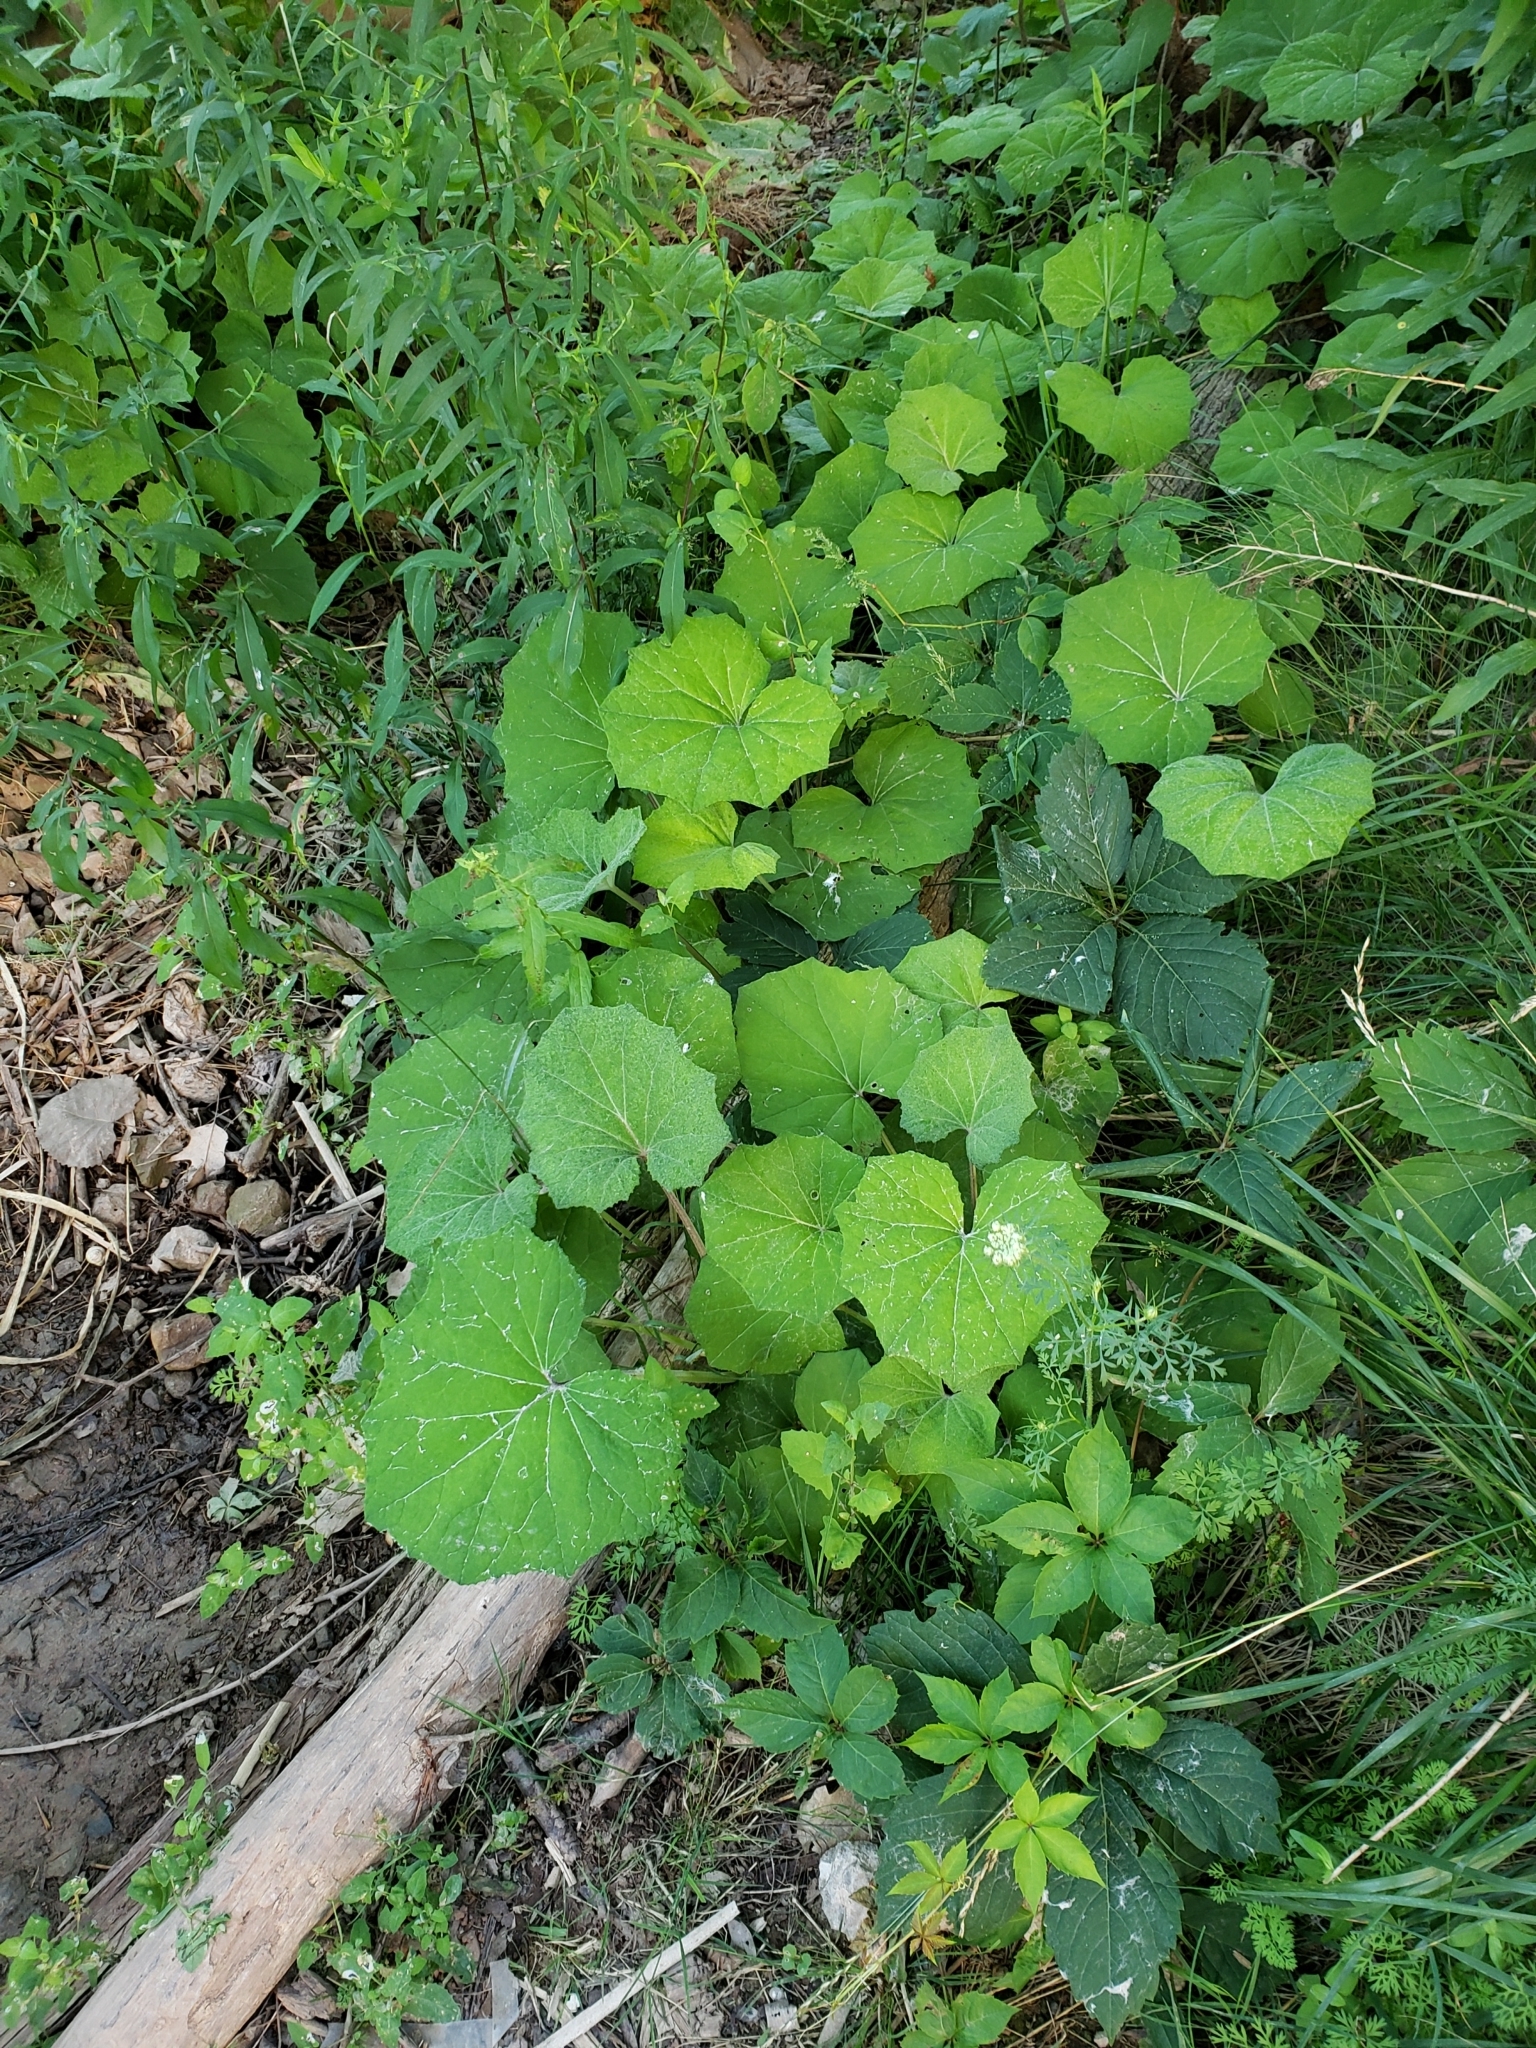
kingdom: Plantae
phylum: Tracheophyta
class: Magnoliopsida
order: Asterales
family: Asteraceae
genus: Tussilago
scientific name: Tussilago farfara
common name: Coltsfoot
